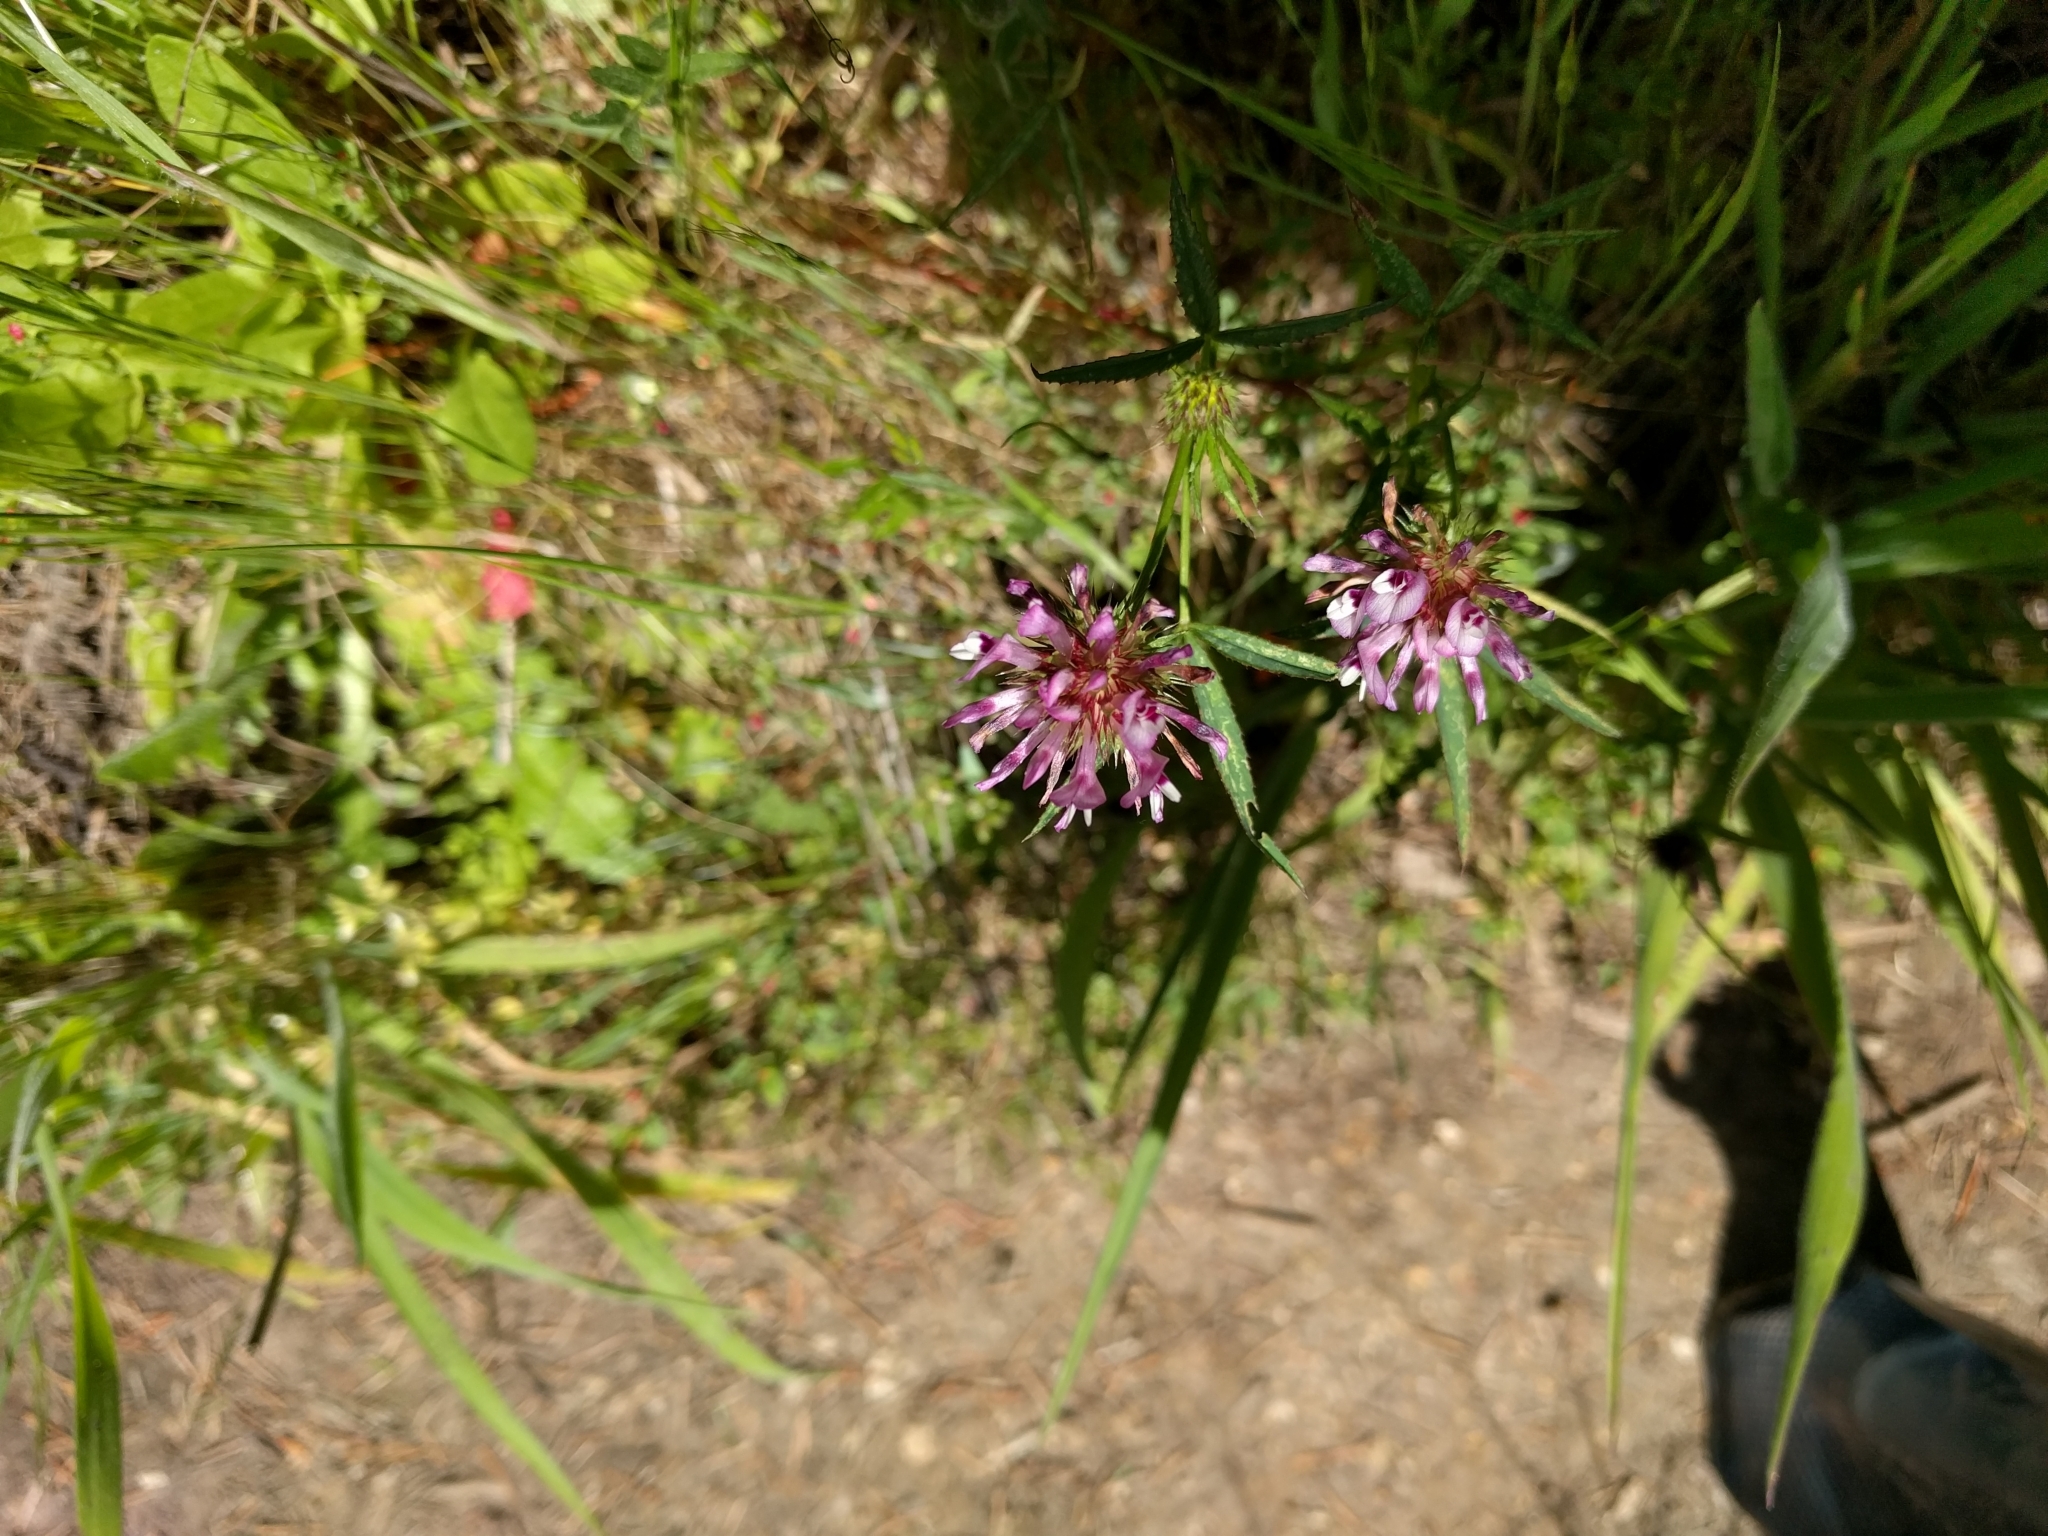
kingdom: Plantae
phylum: Tracheophyta
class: Magnoliopsida
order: Fabales
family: Fabaceae
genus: Trifolium
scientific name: Trifolium willdenovii
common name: Tomcat clover
